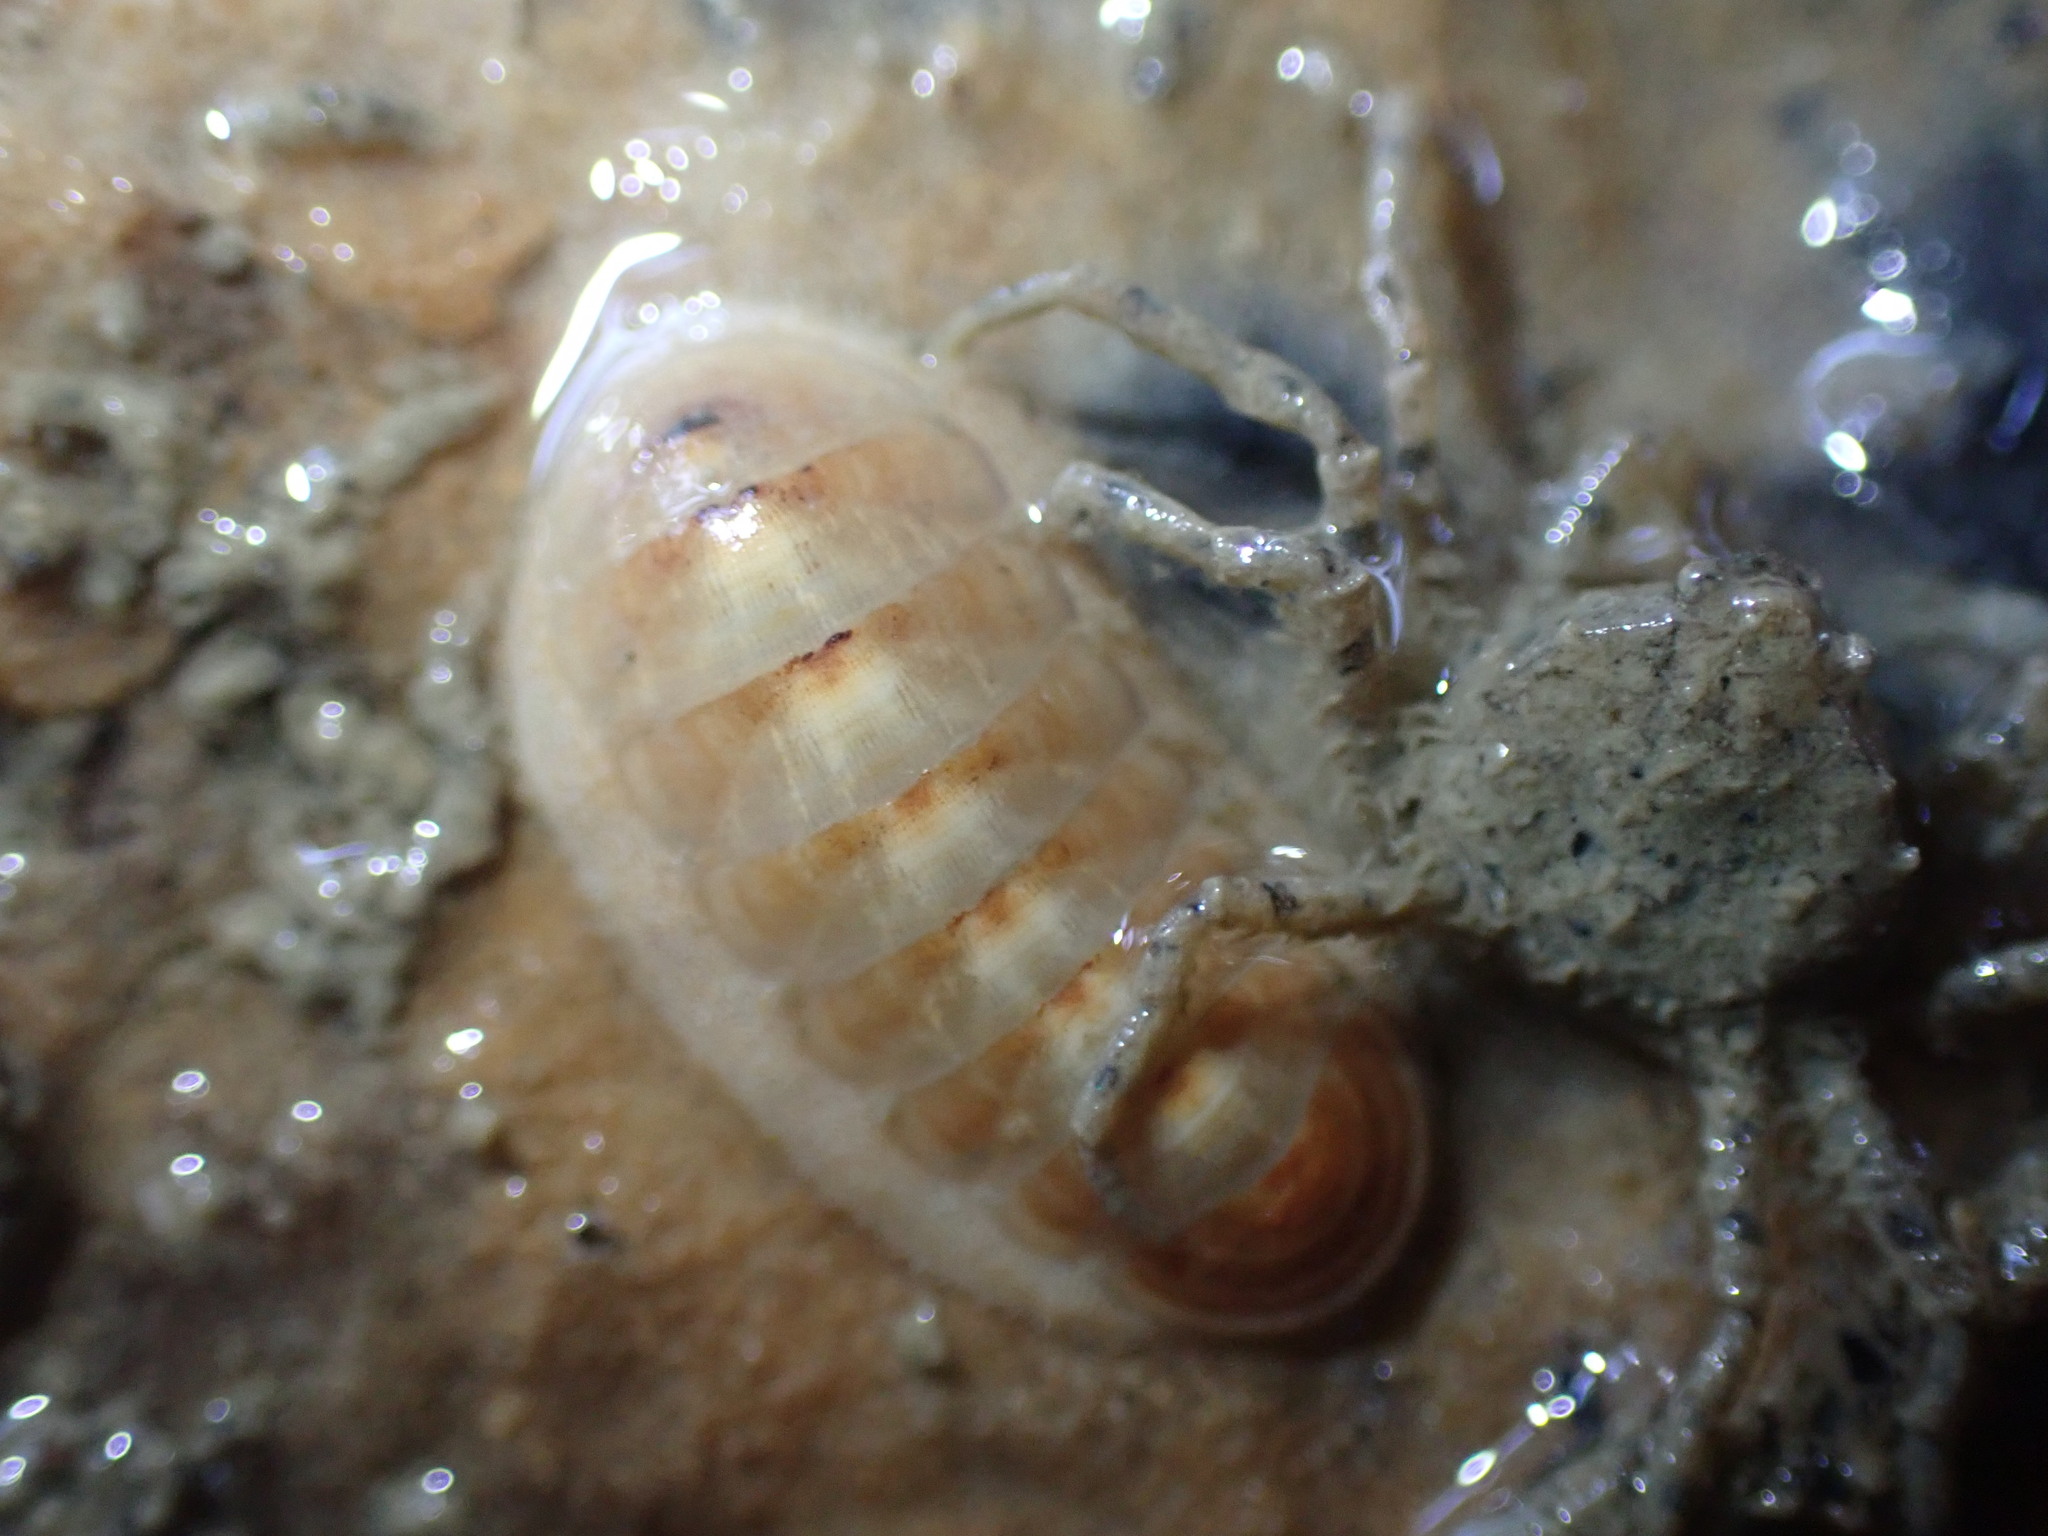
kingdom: Animalia
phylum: Mollusca
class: Polyplacophora
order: Lepidopleurida
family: Leptochitonidae
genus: Leptochiton
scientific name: Leptochiton inquinatus
